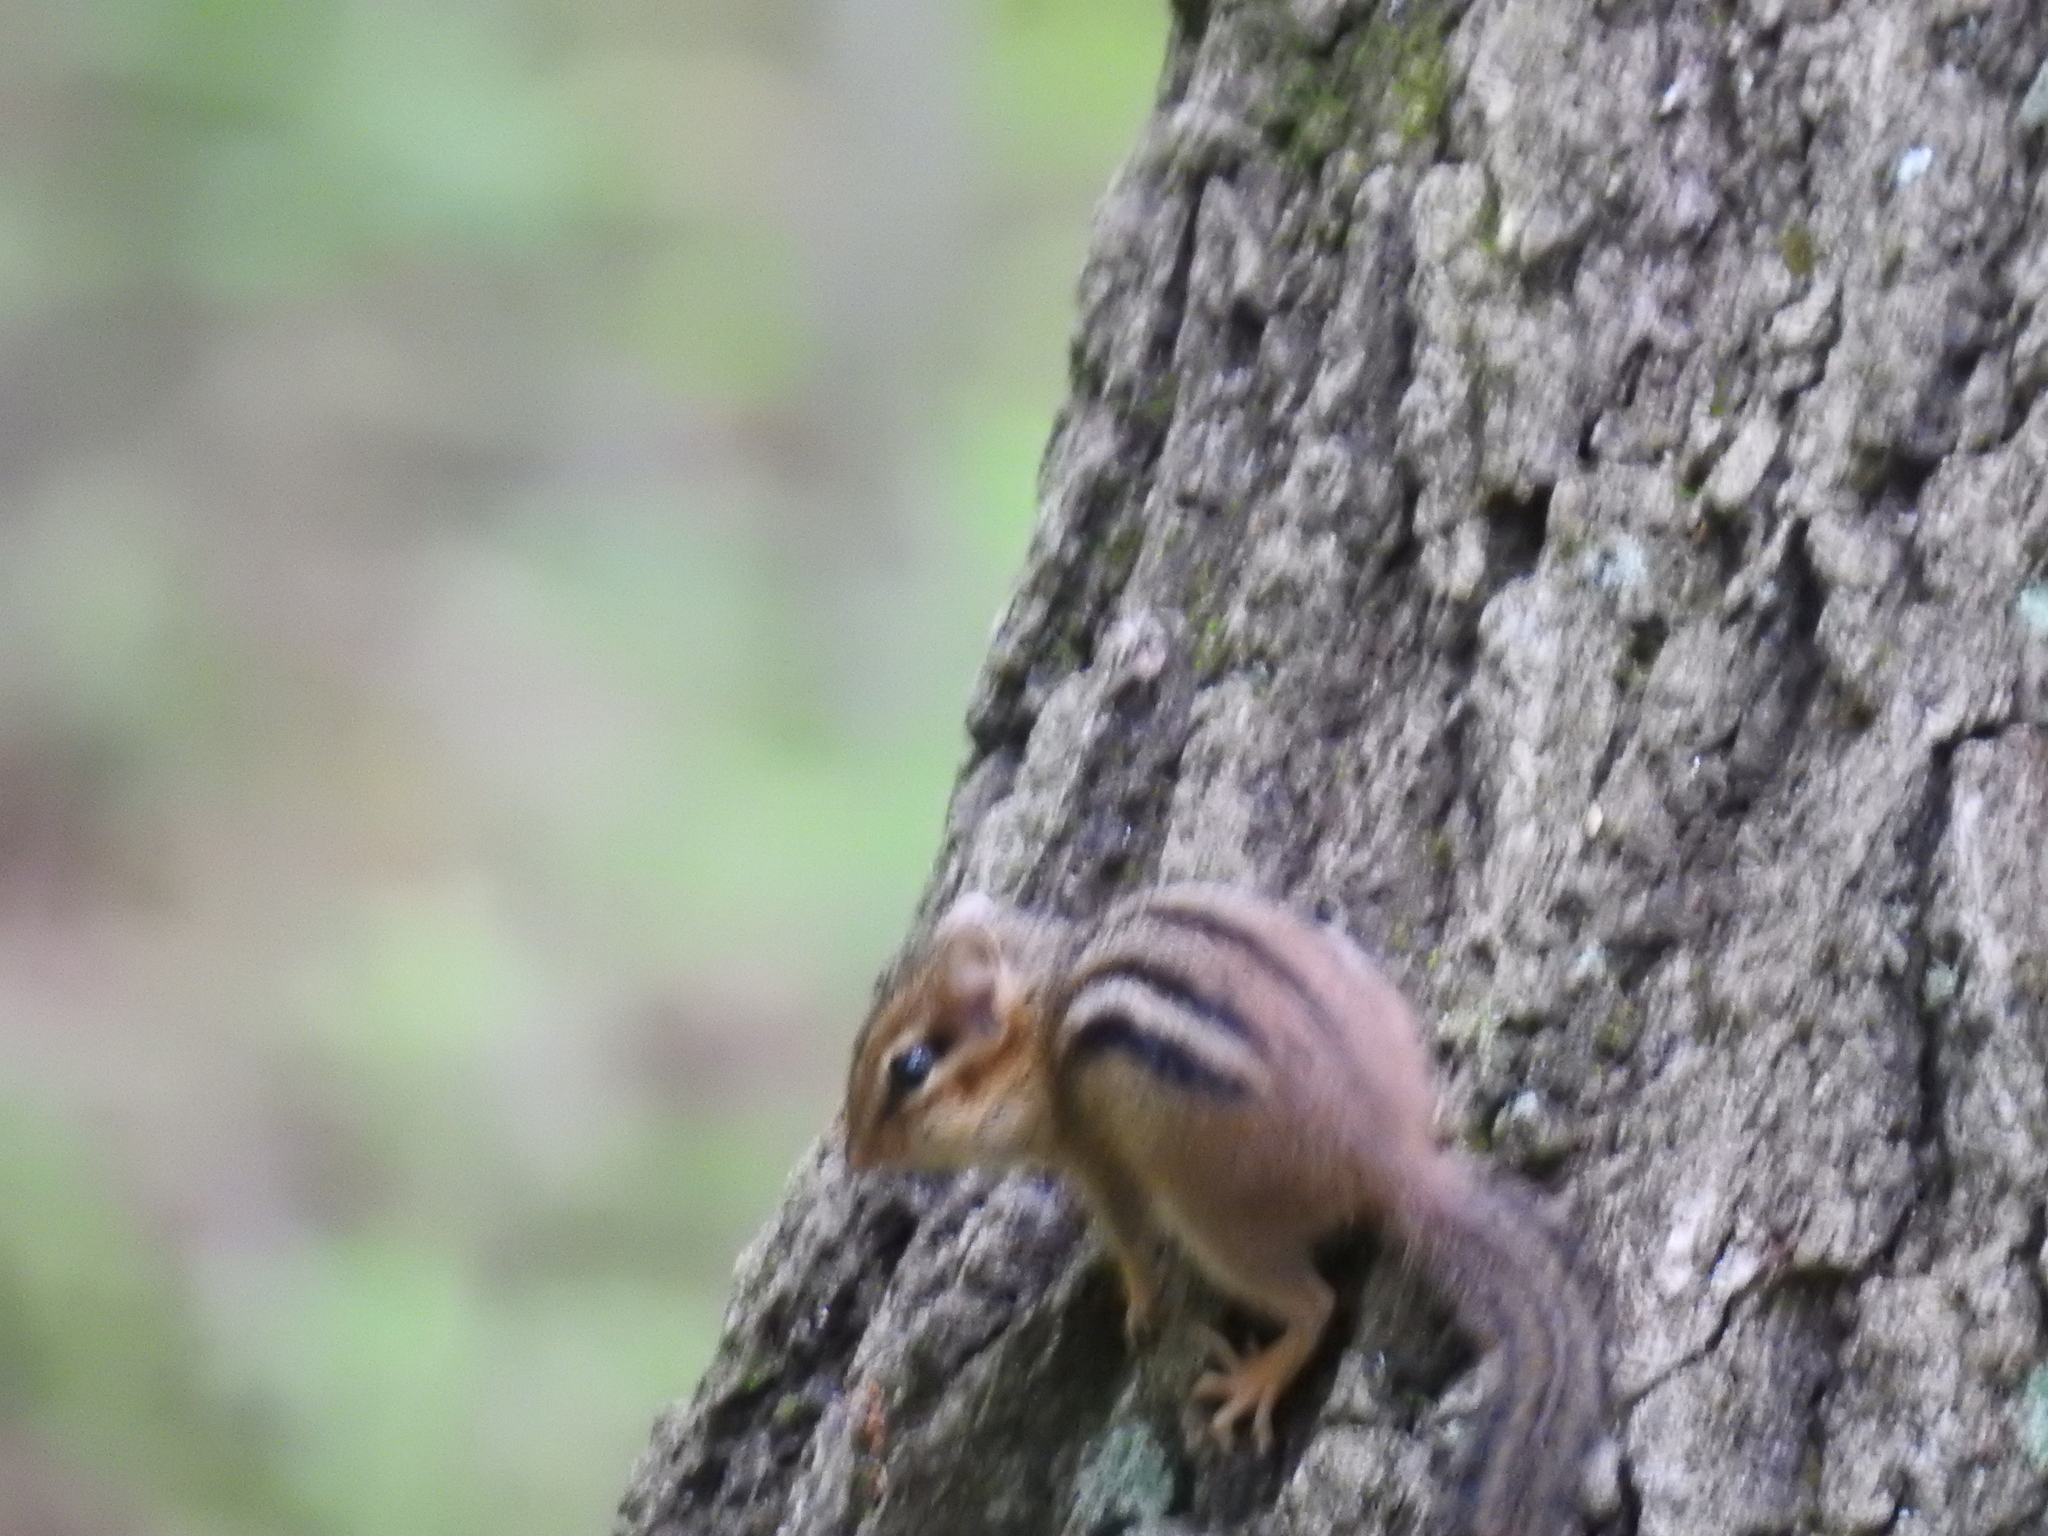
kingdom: Animalia
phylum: Chordata
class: Mammalia
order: Rodentia
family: Sciuridae
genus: Tamias
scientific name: Tamias striatus
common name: Eastern chipmunk
